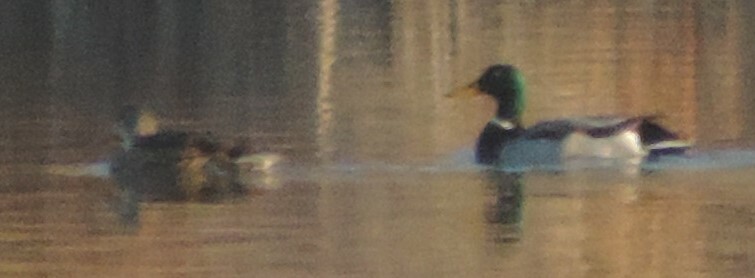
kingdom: Animalia
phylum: Chordata
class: Aves
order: Anseriformes
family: Anatidae
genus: Anas
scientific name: Anas platyrhynchos
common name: Mallard
